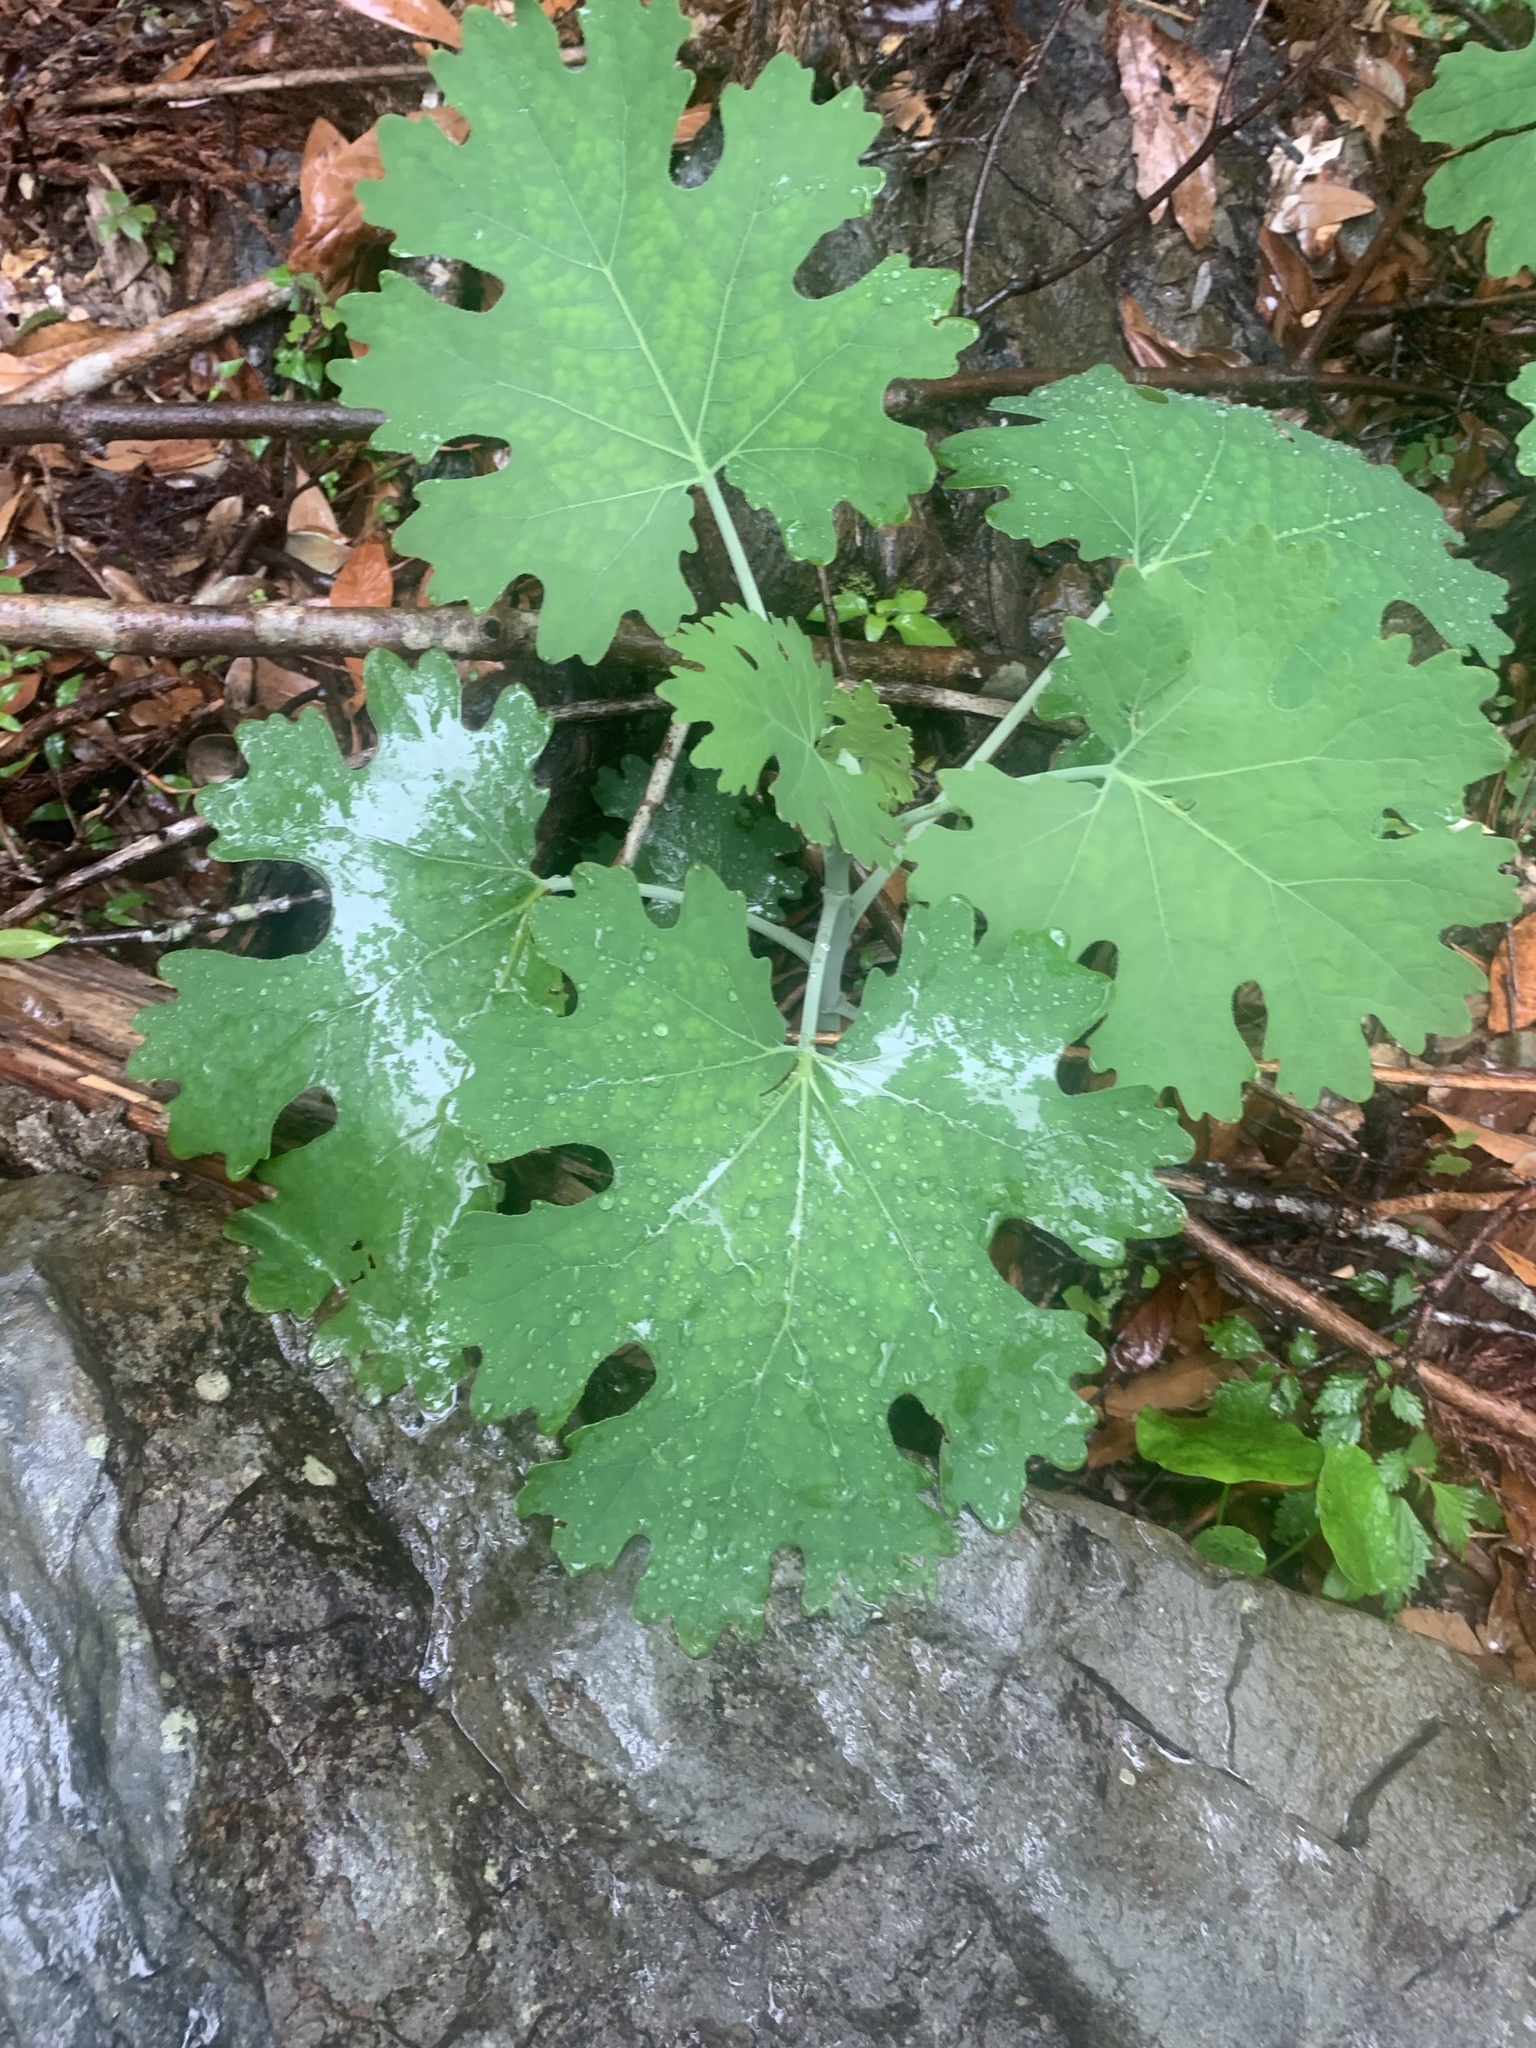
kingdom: Plantae
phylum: Tracheophyta
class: Magnoliopsida
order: Ranunculales
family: Papaveraceae
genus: Macleaya
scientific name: Macleaya cordata
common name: Plume poppy
